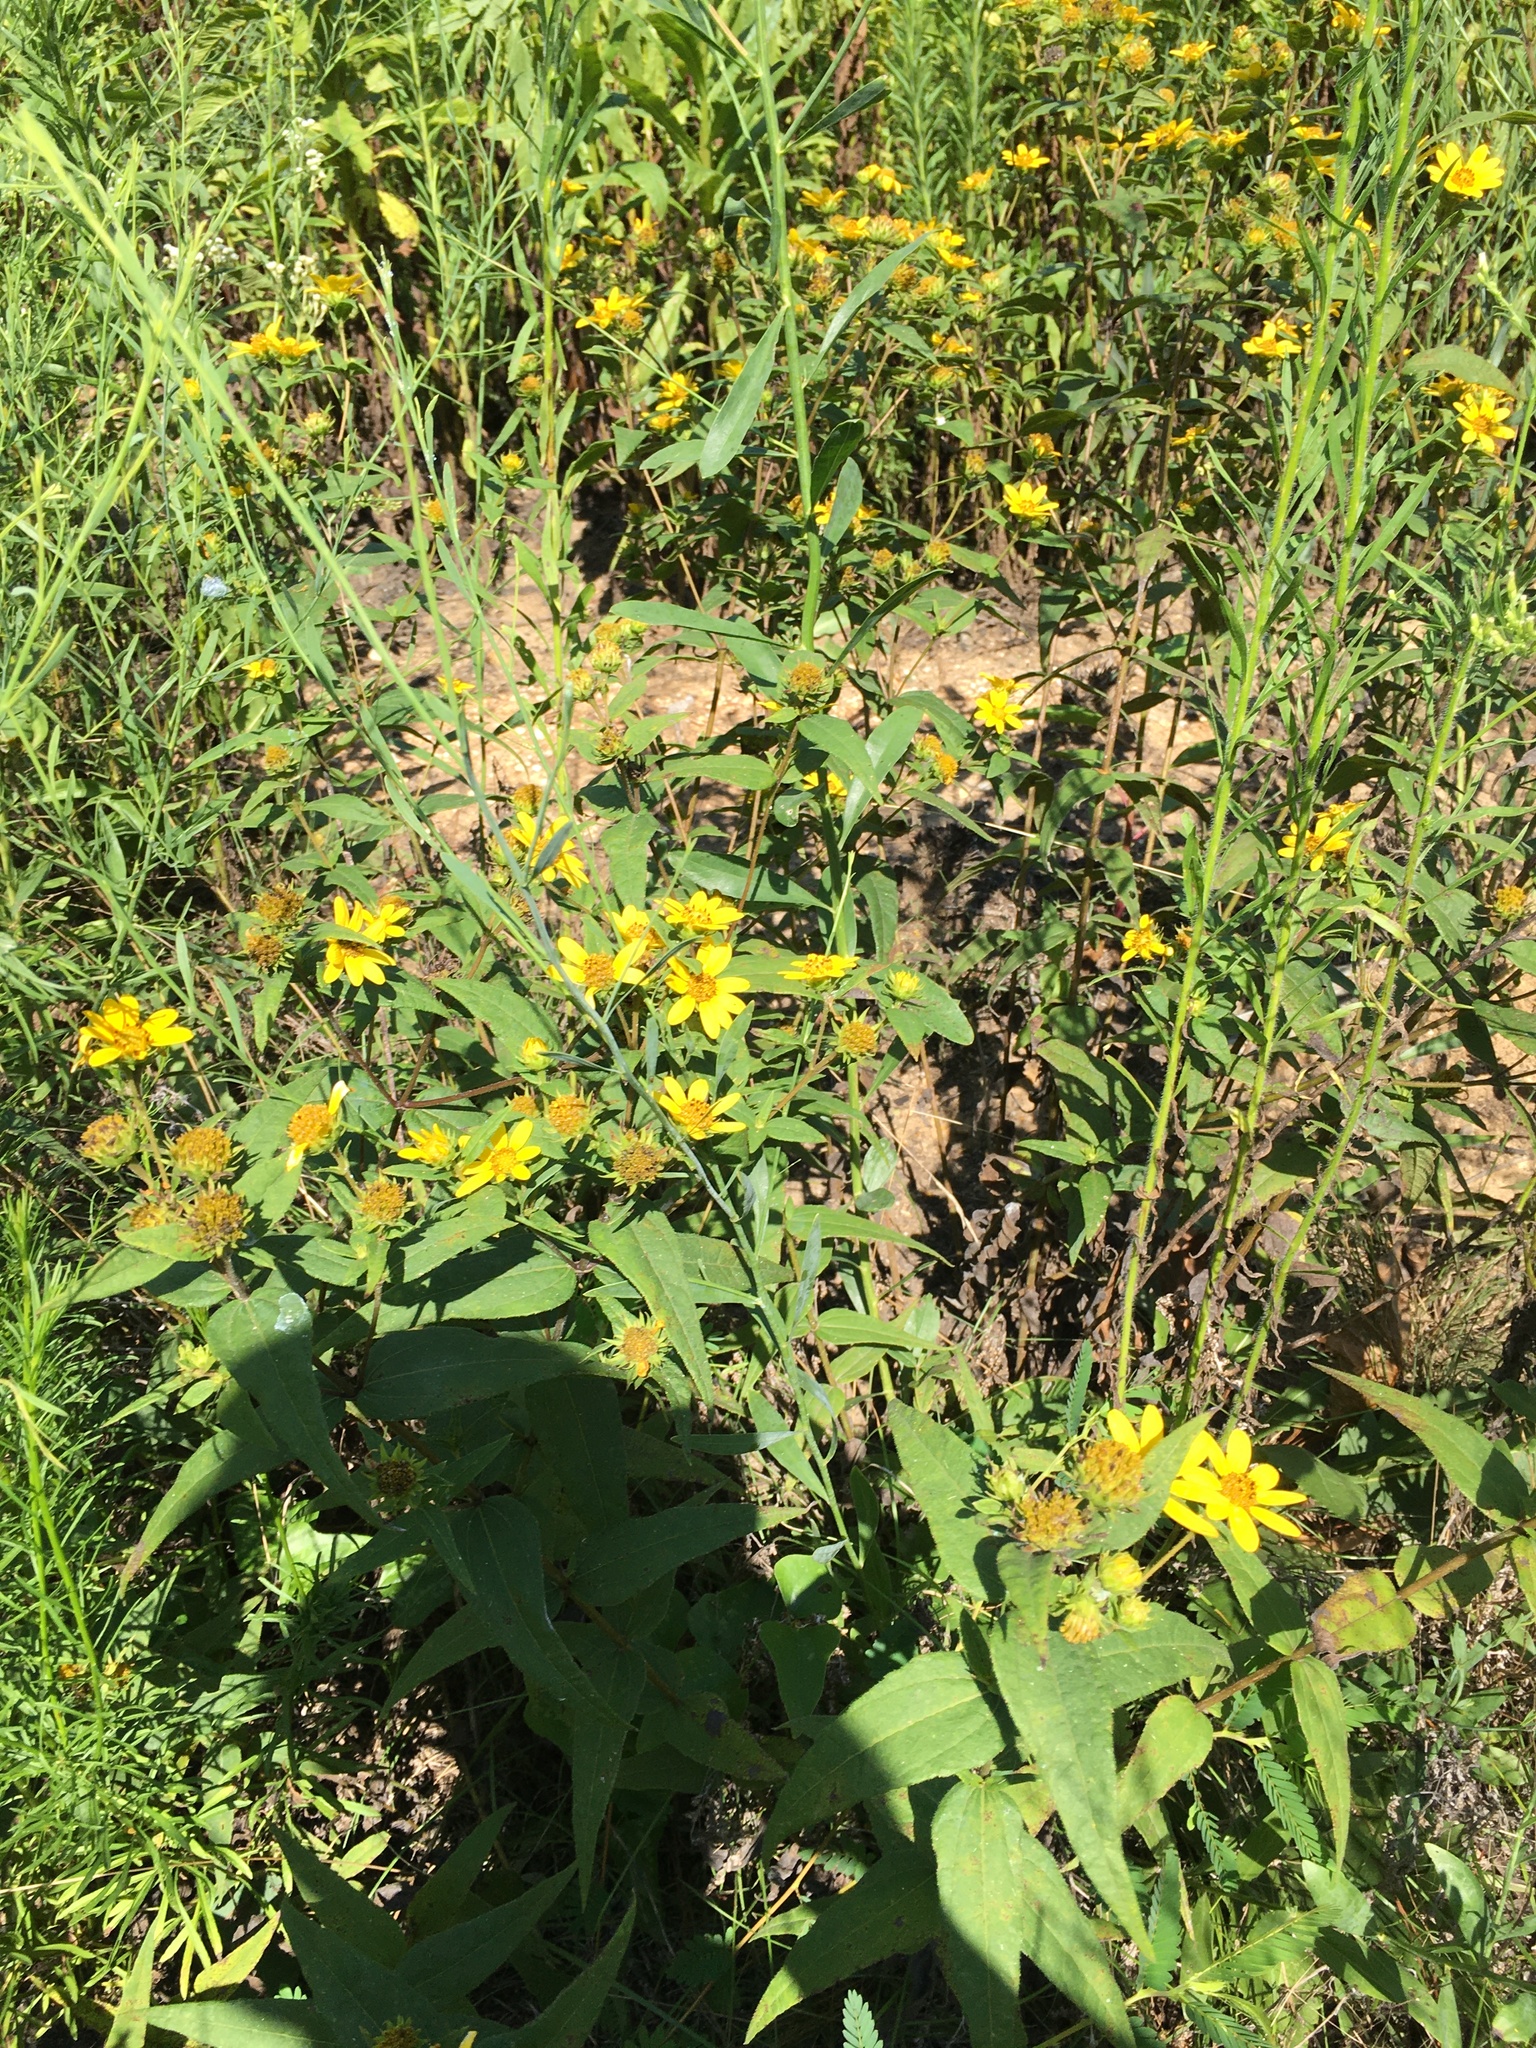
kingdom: Plantae
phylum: Tracheophyta
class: Magnoliopsida
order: Asterales
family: Asteraceae
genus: Helianthus
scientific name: Helianthus divaricatus
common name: Divergent sunflower
